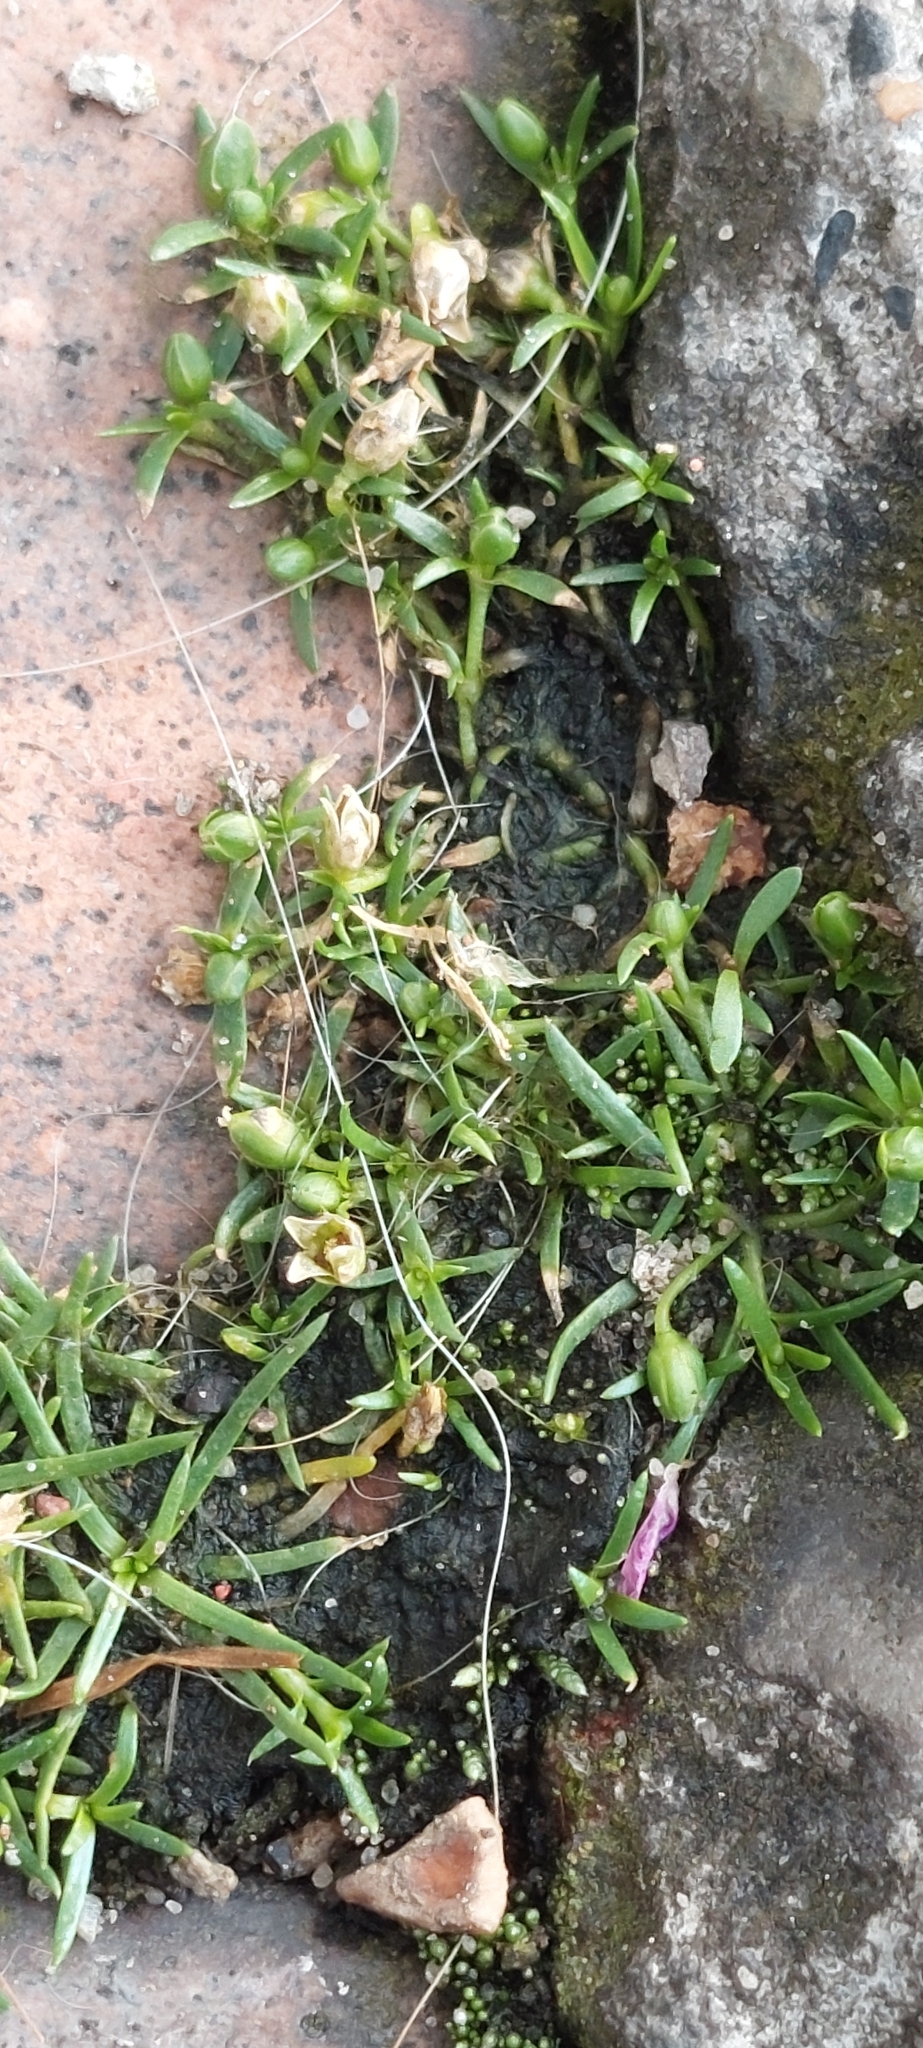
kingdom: Plantae
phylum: Tracheophyta
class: Magnoliopsida
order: Caryophyllales
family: Caryophyllaceae
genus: Sagina
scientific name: Sagina procumbens
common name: Procumbent pearlwort
